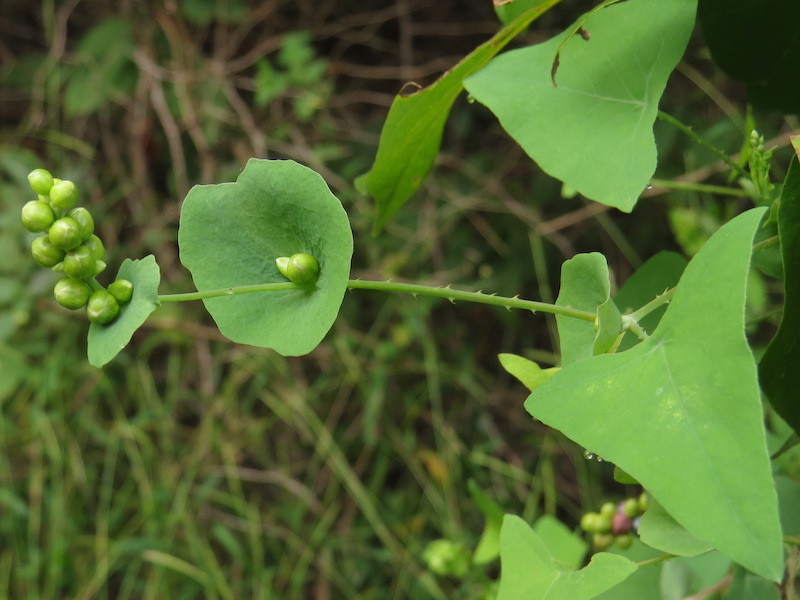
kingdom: Plantae
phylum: Tracheophyta
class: Magnoliopsida
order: Caryophyllales
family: Polygonaceae
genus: Persicaria
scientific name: Persicaria perfoliata
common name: Asiatic tearthumb
